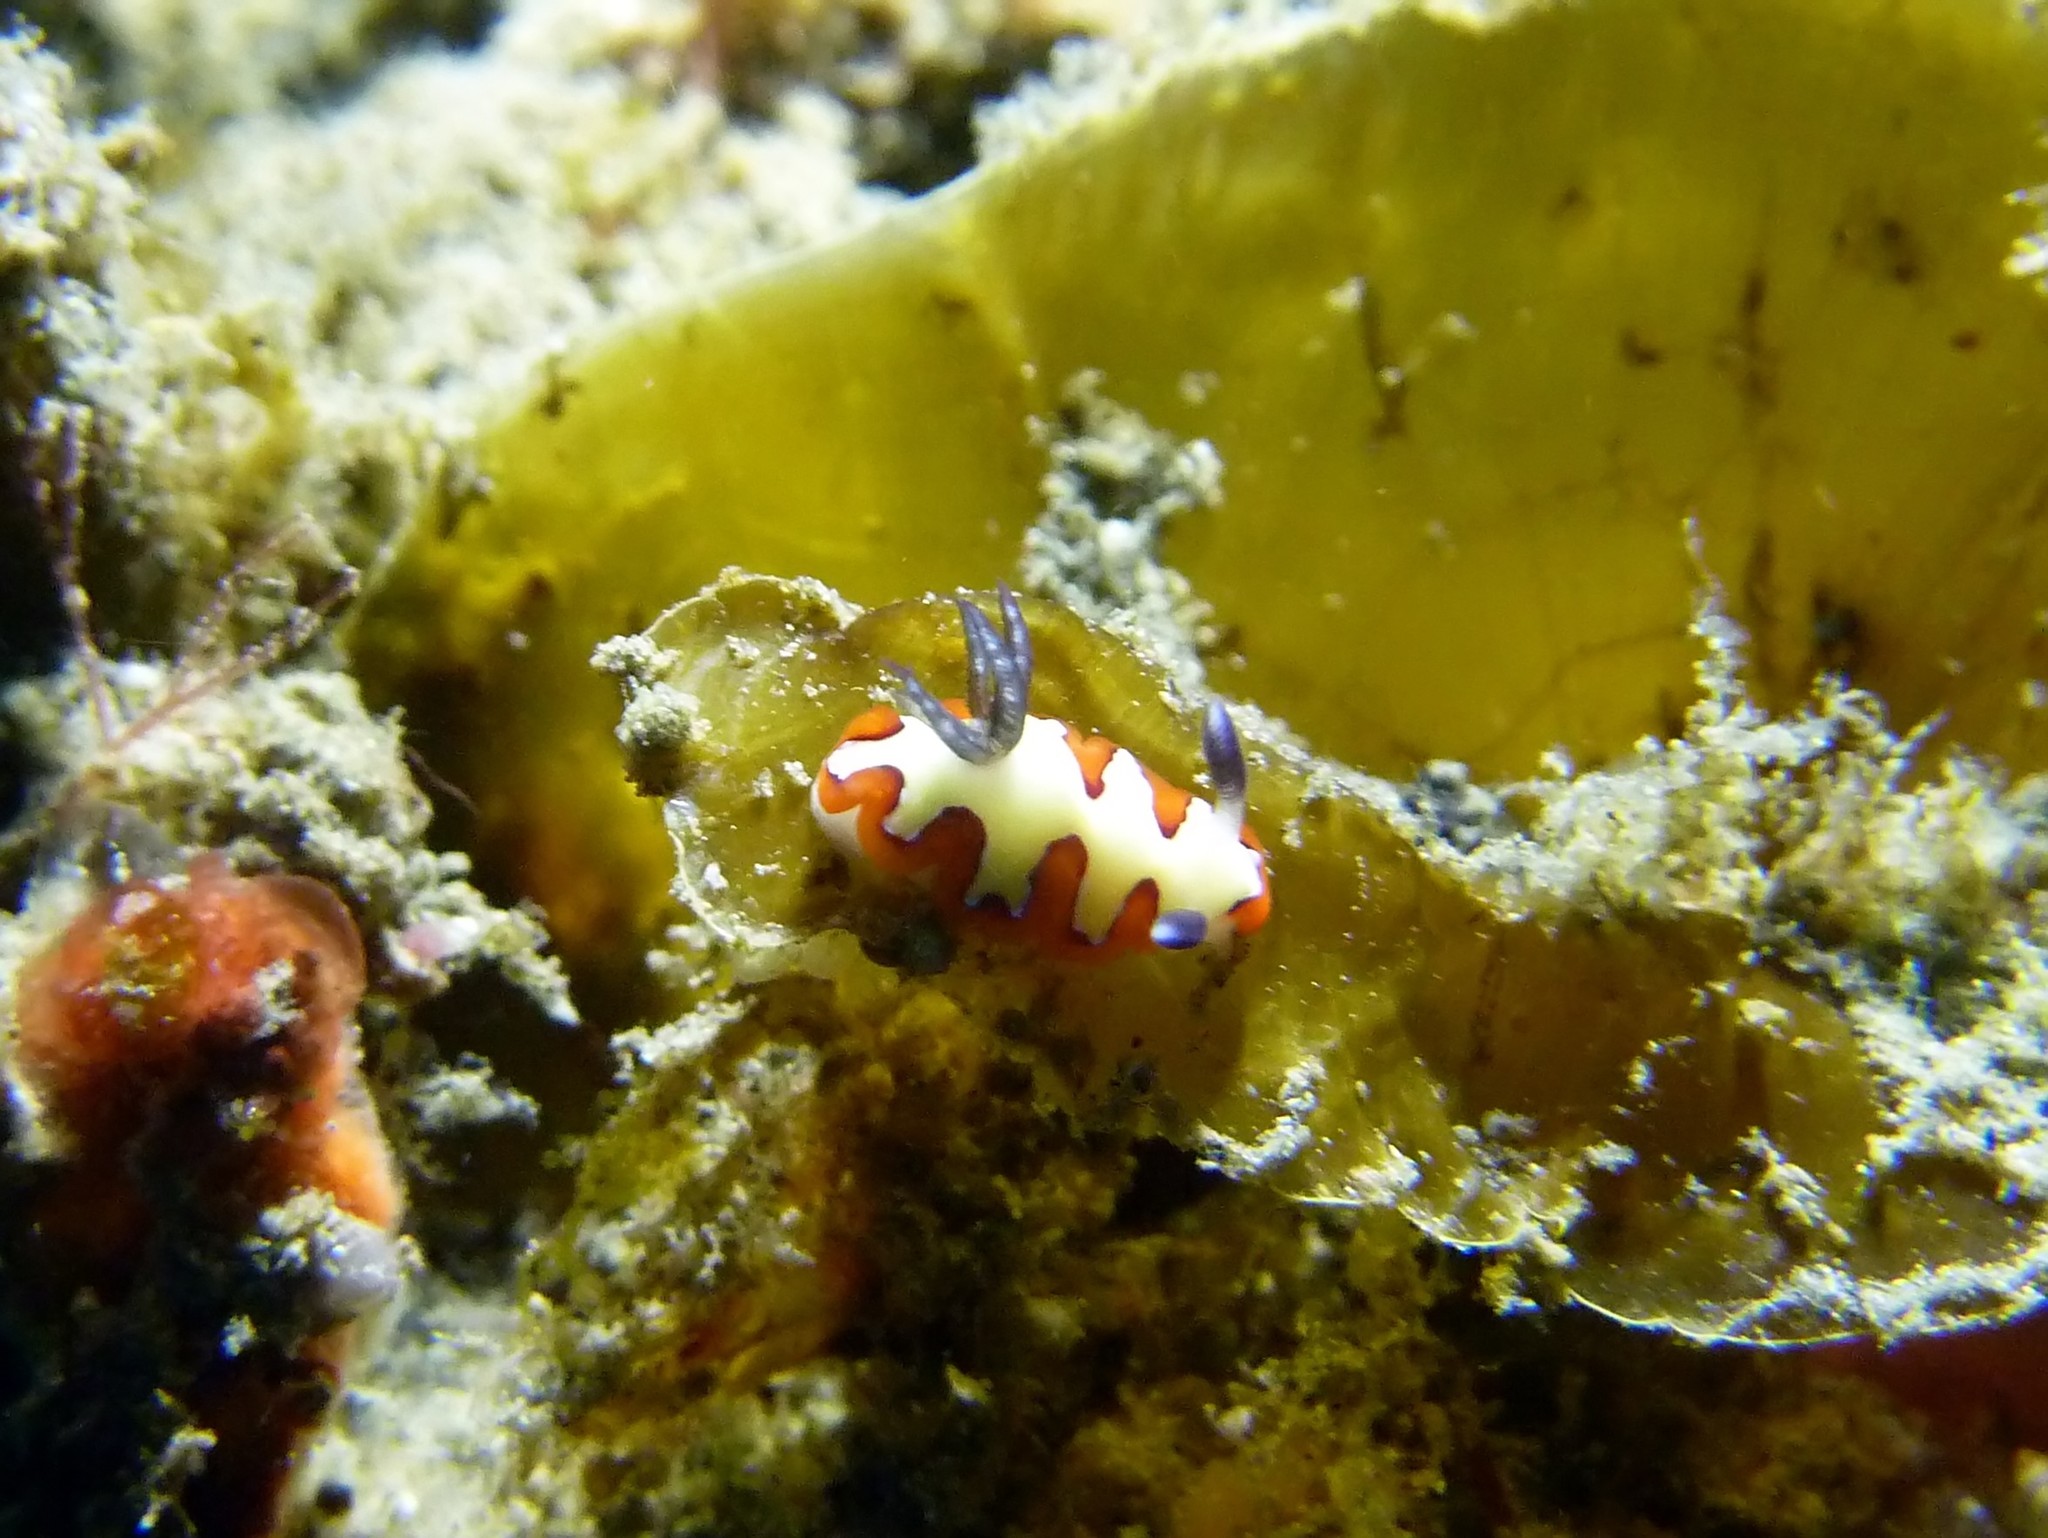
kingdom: Animalia
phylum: Mollusca
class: Gastropoda
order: Nudibranchia
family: Chromodorididae
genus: Goniobranchus
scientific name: Goniobranchus fidelis
